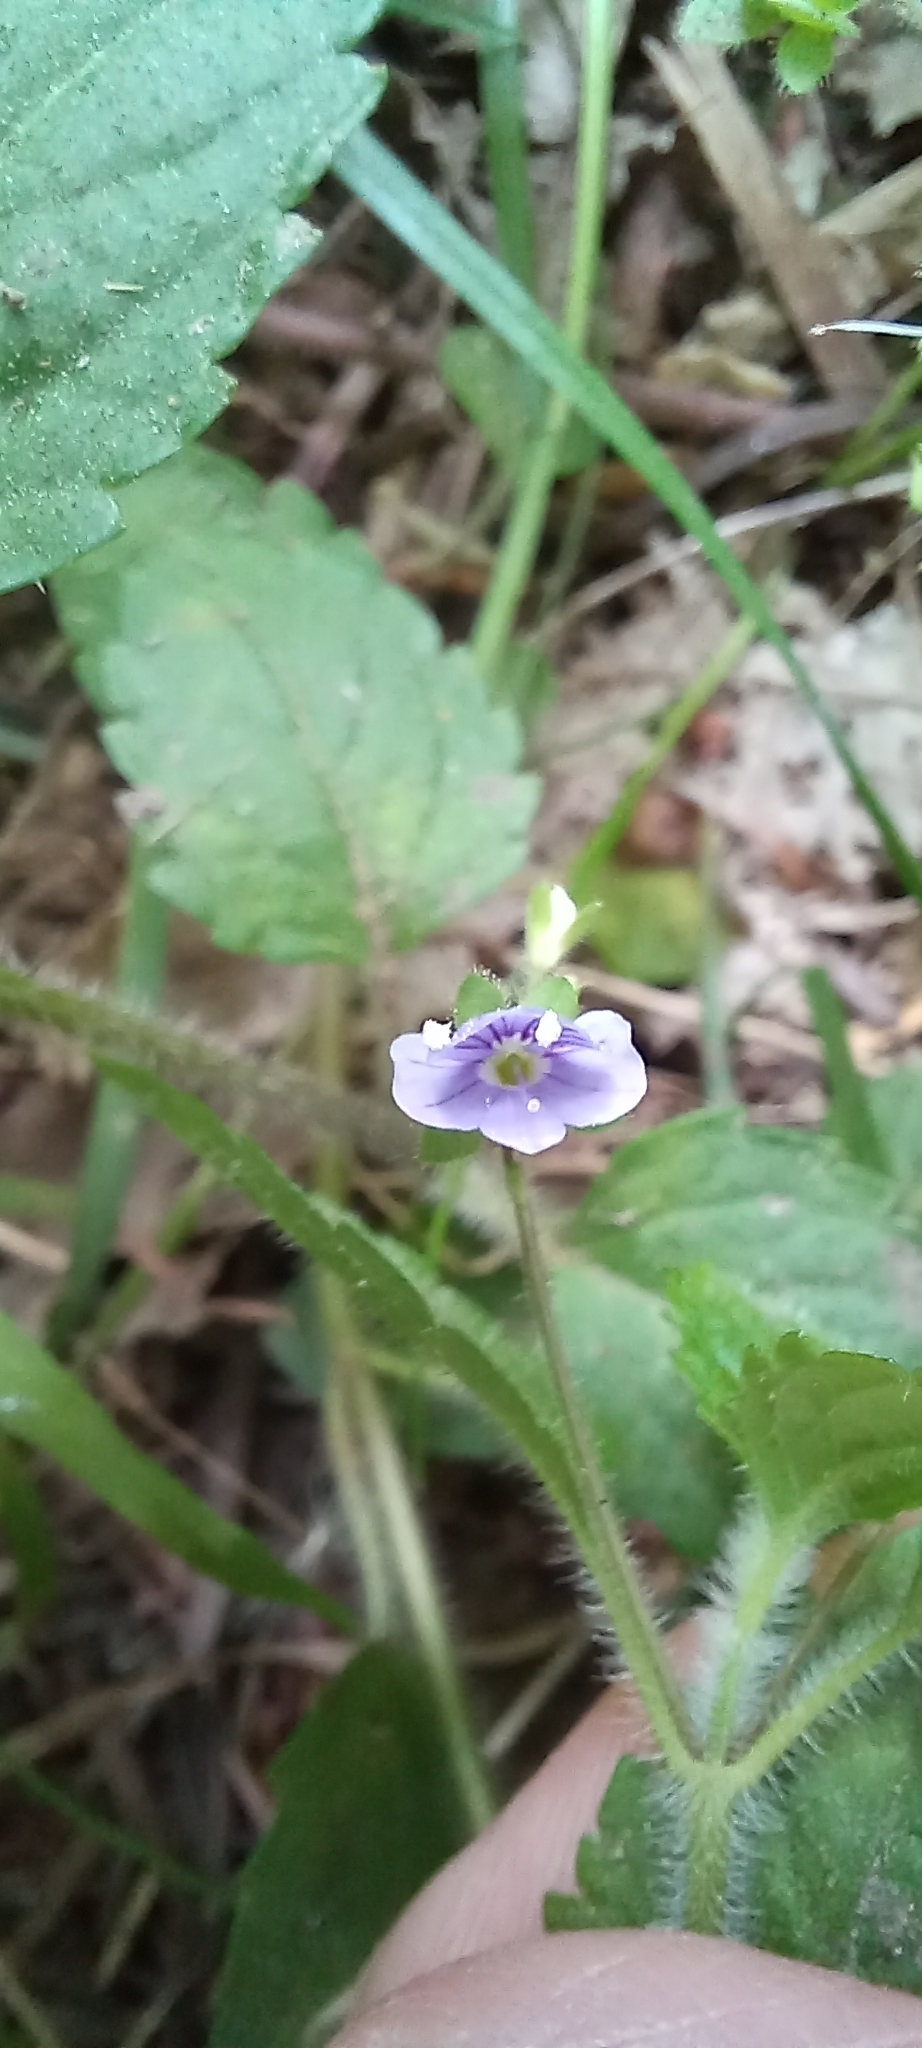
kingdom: Plantae
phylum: Tracheophyta
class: Magnoliopsida
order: Lamiales
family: Plantaginaceae
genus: Veronica
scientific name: Veronica montana
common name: Wood speedwell
